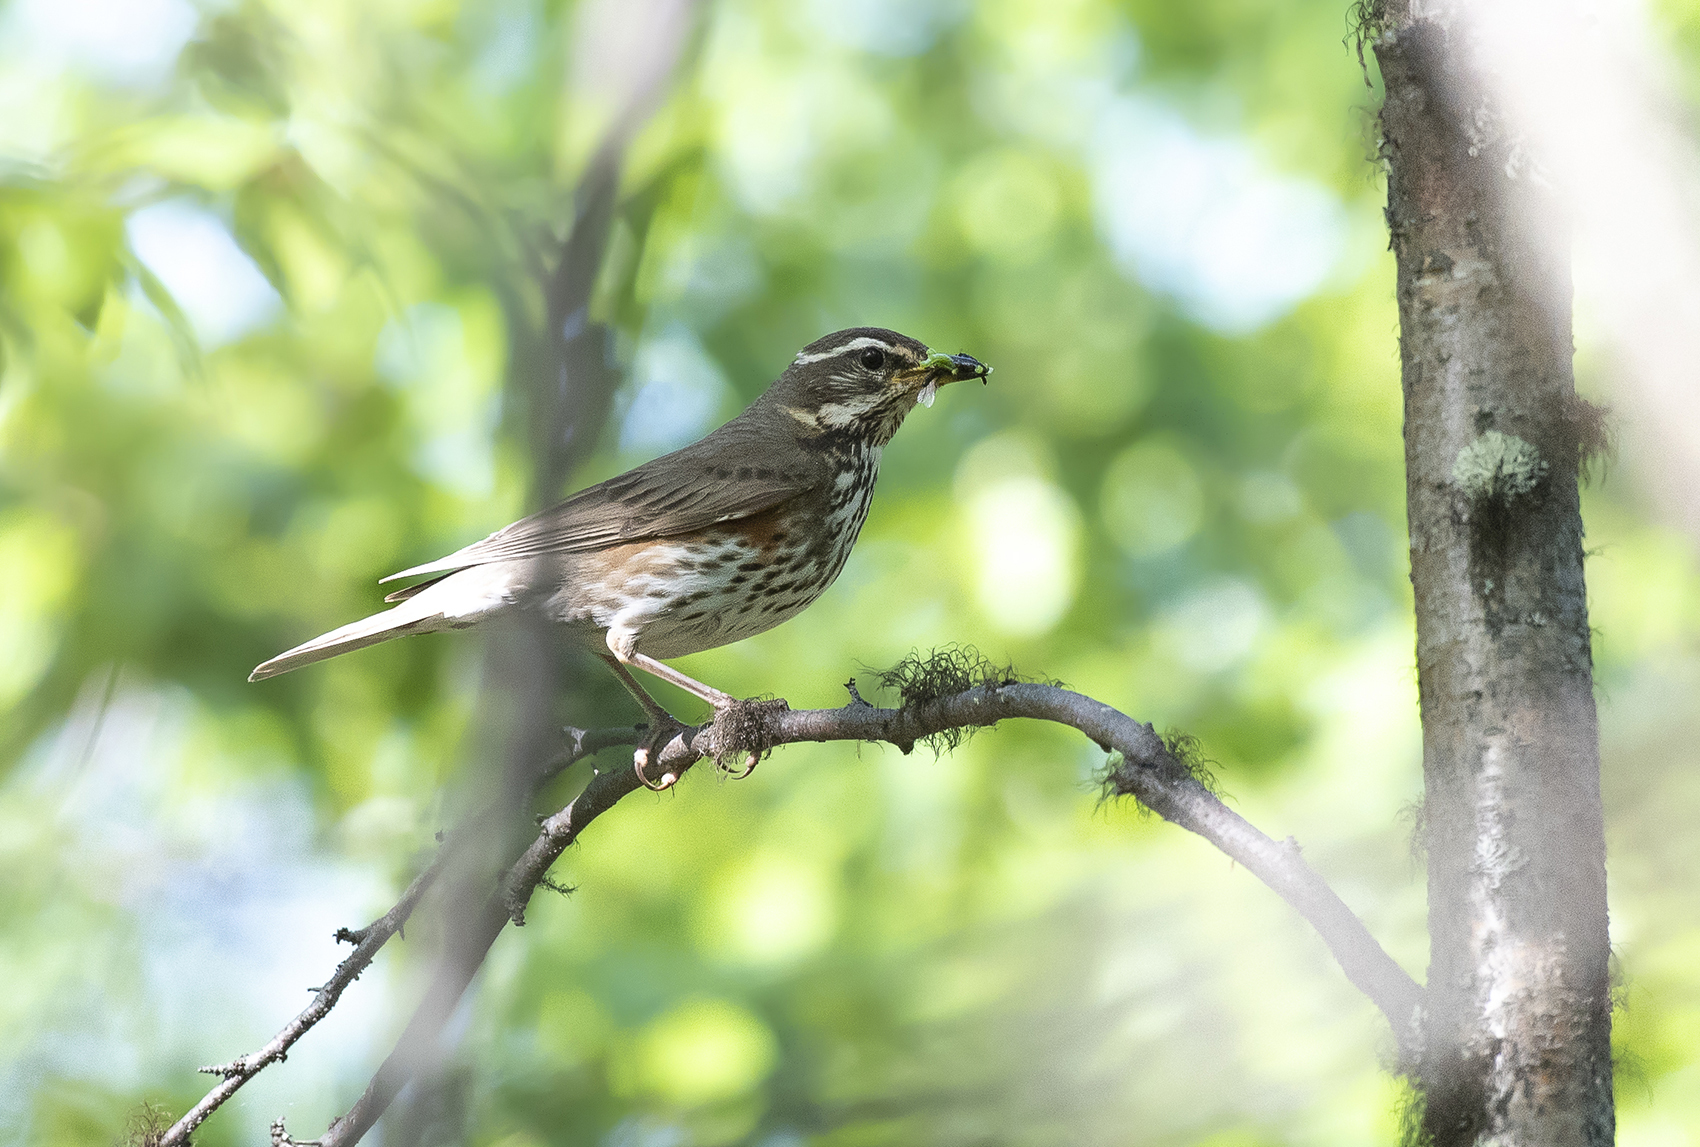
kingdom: Animalia
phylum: Chordata
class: Aves
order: Passeriformes
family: Turdidae
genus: Turdus
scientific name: Turdus iliacus
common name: Redwing
